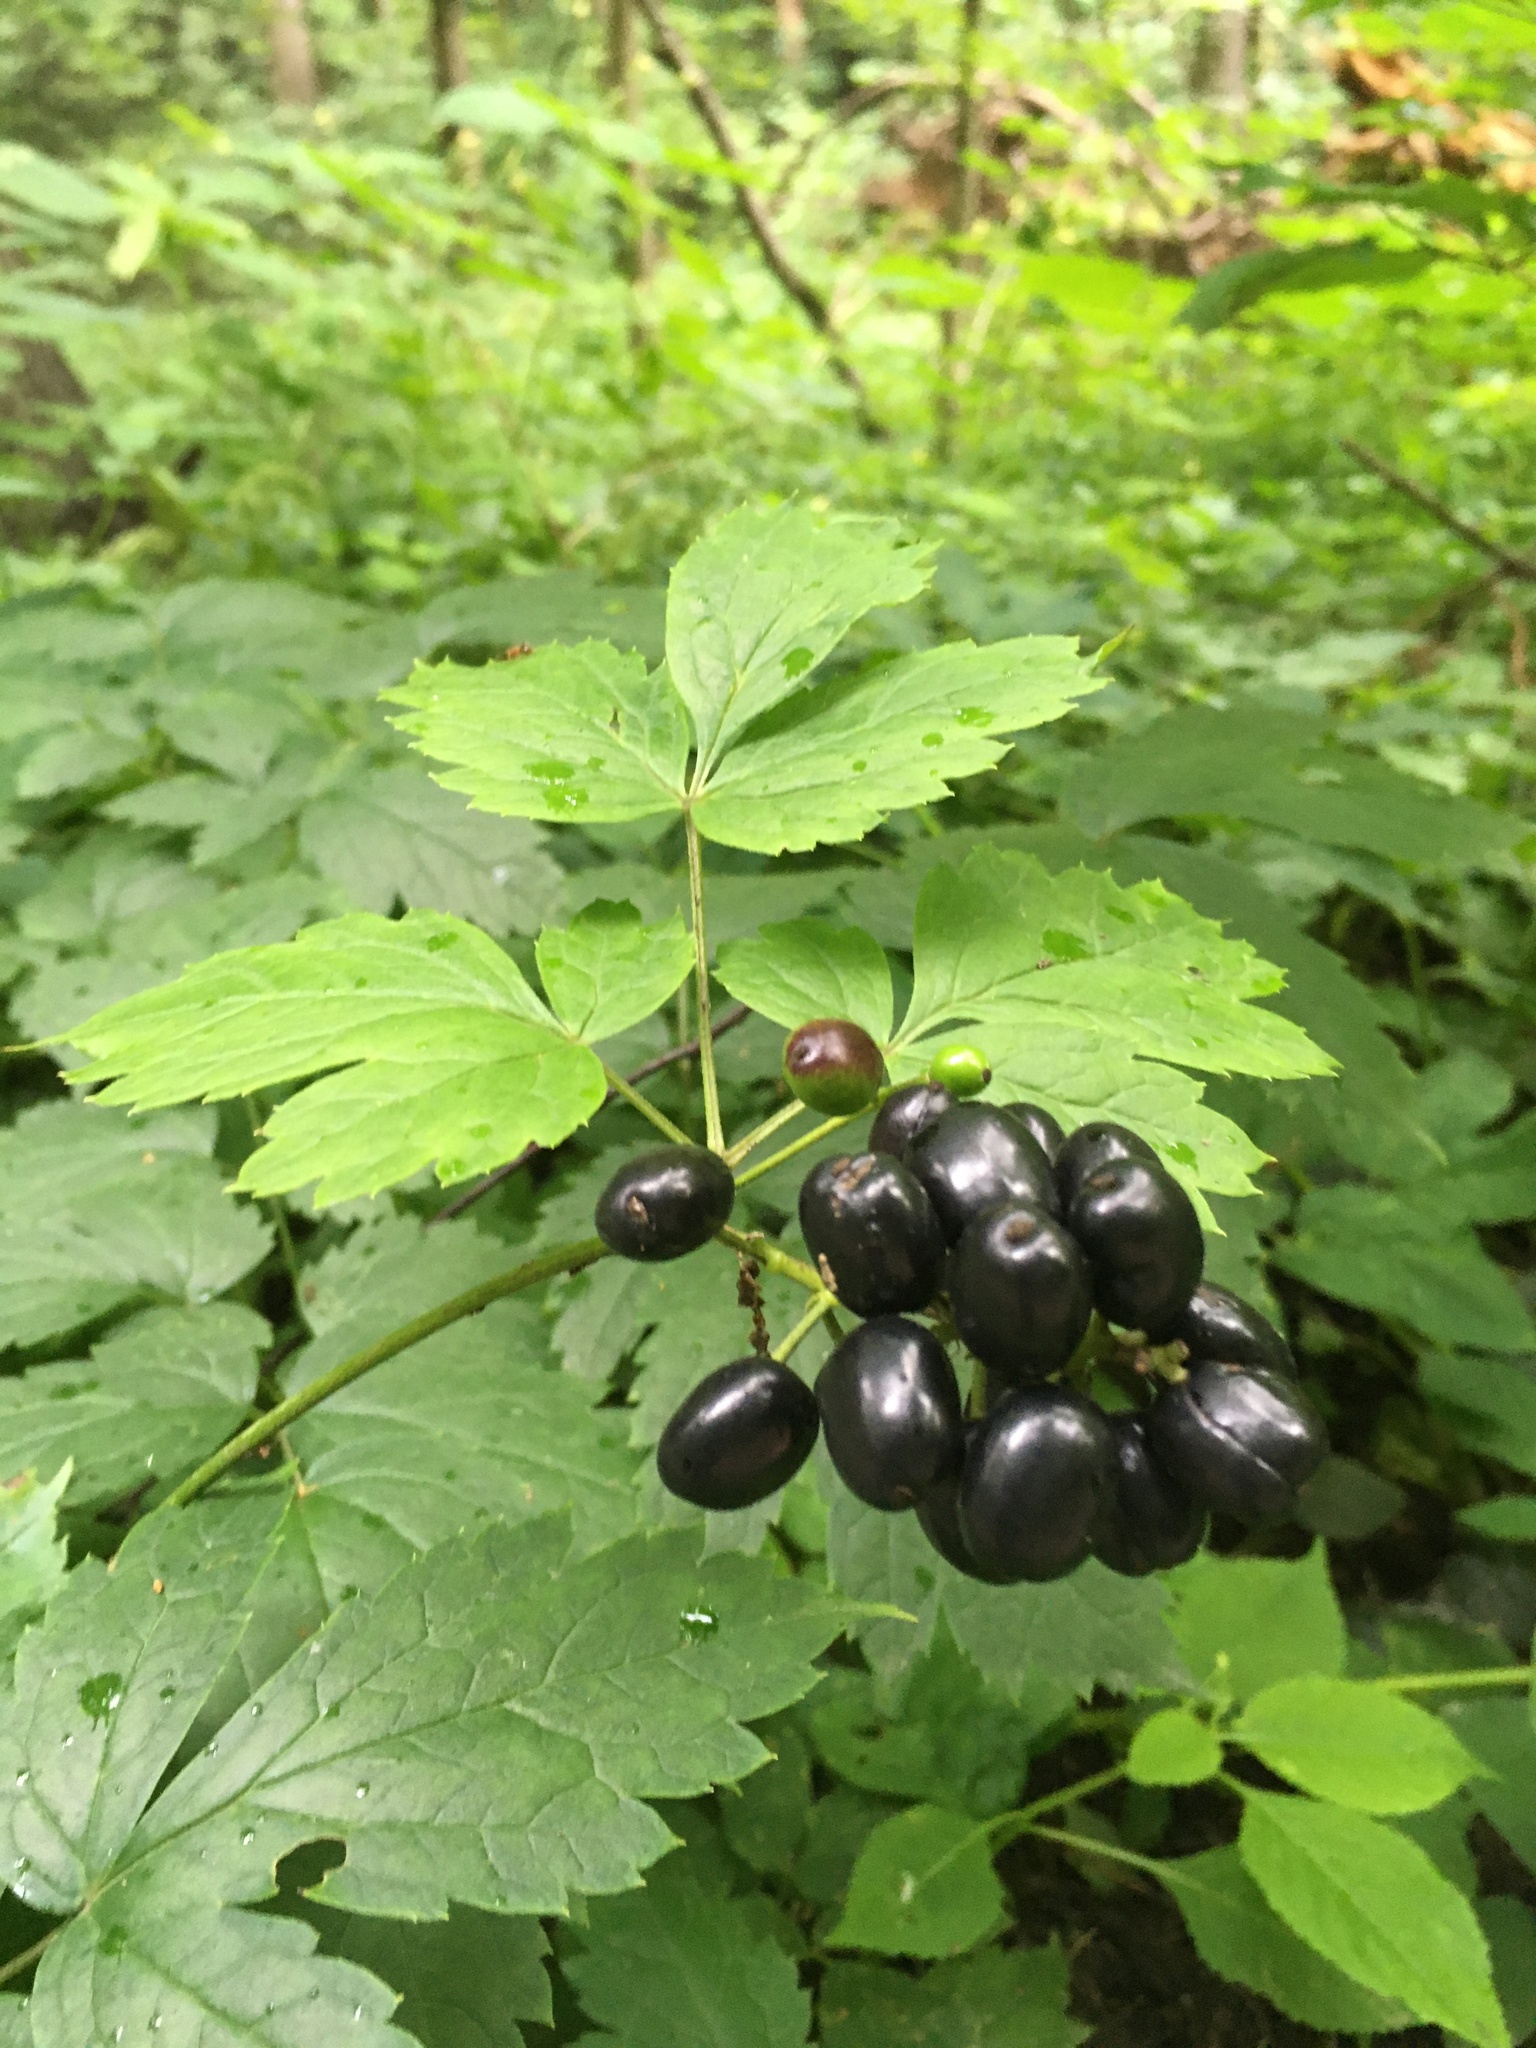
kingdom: Plantae
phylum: Tracheophyta
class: Magnoliopsida
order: Ranunculales
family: Ranunculaceae
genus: Actaea
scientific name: Actaea spicata
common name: Baneberry
